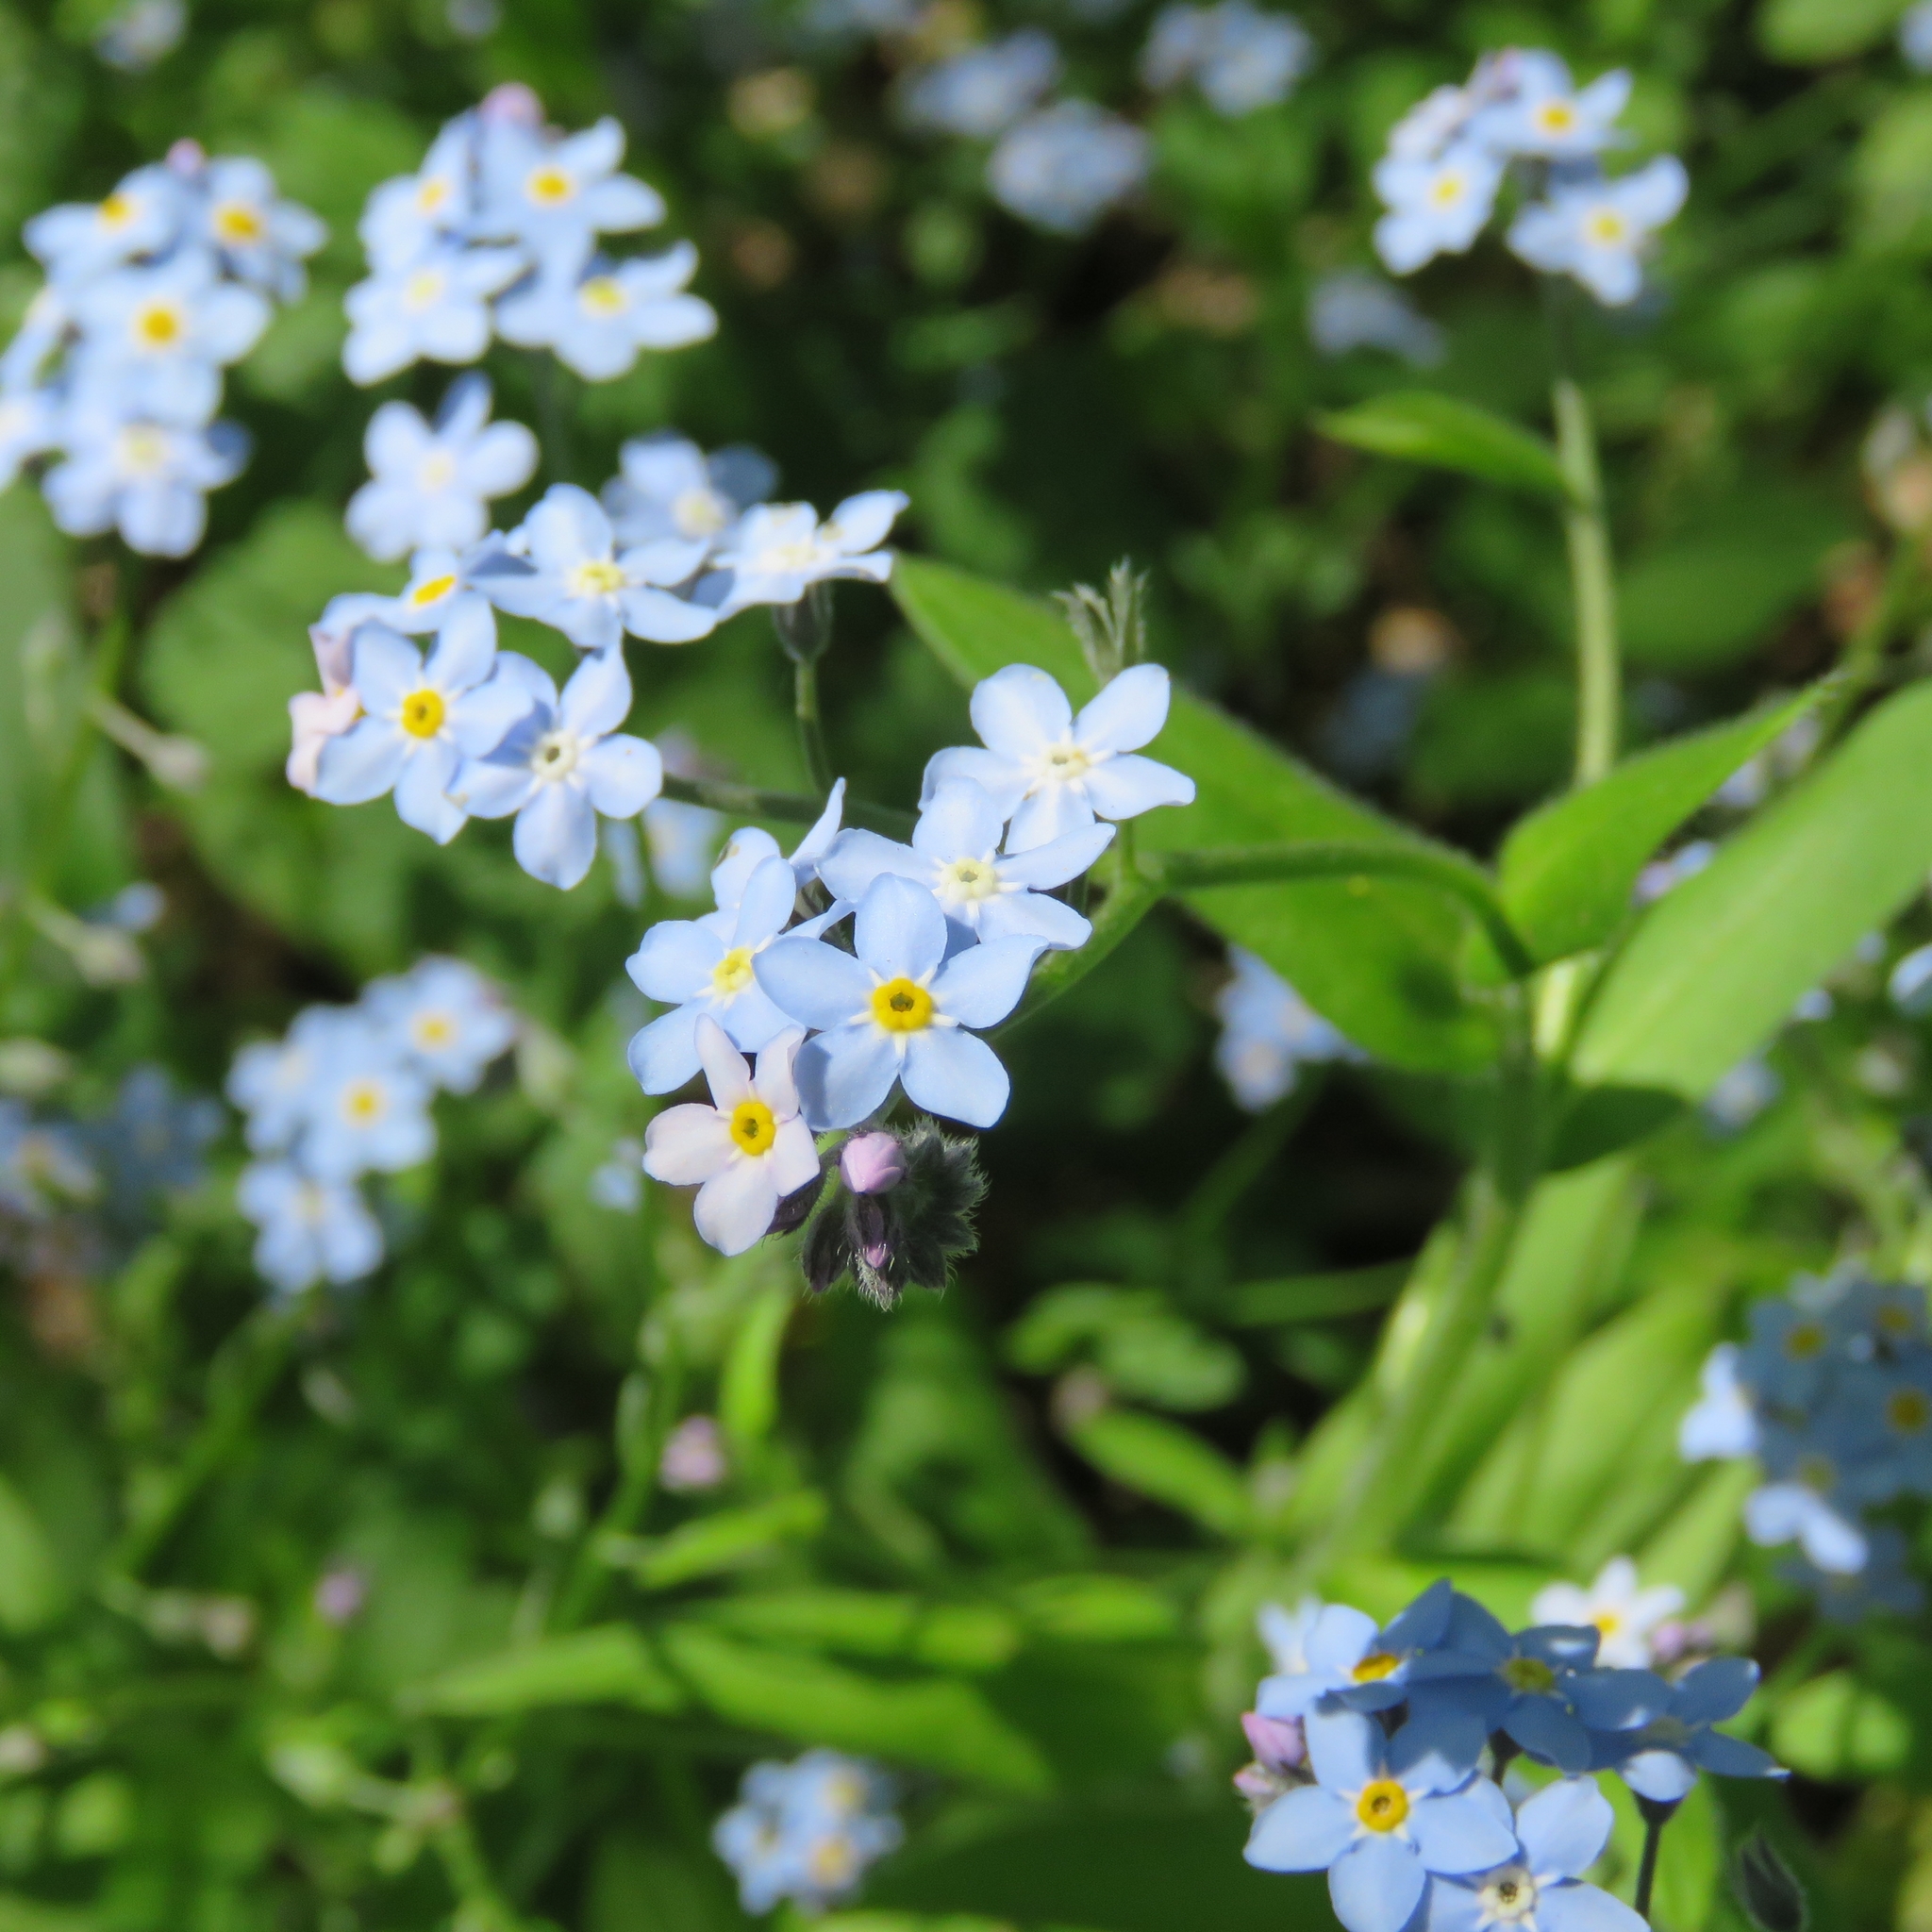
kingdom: Plantae
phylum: Tracheophyta
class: Magnoliopsida
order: Boraginales
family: Boraginaceae
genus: Myosotis
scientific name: Myosotis sylvatica
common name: Wood forget-me-not
